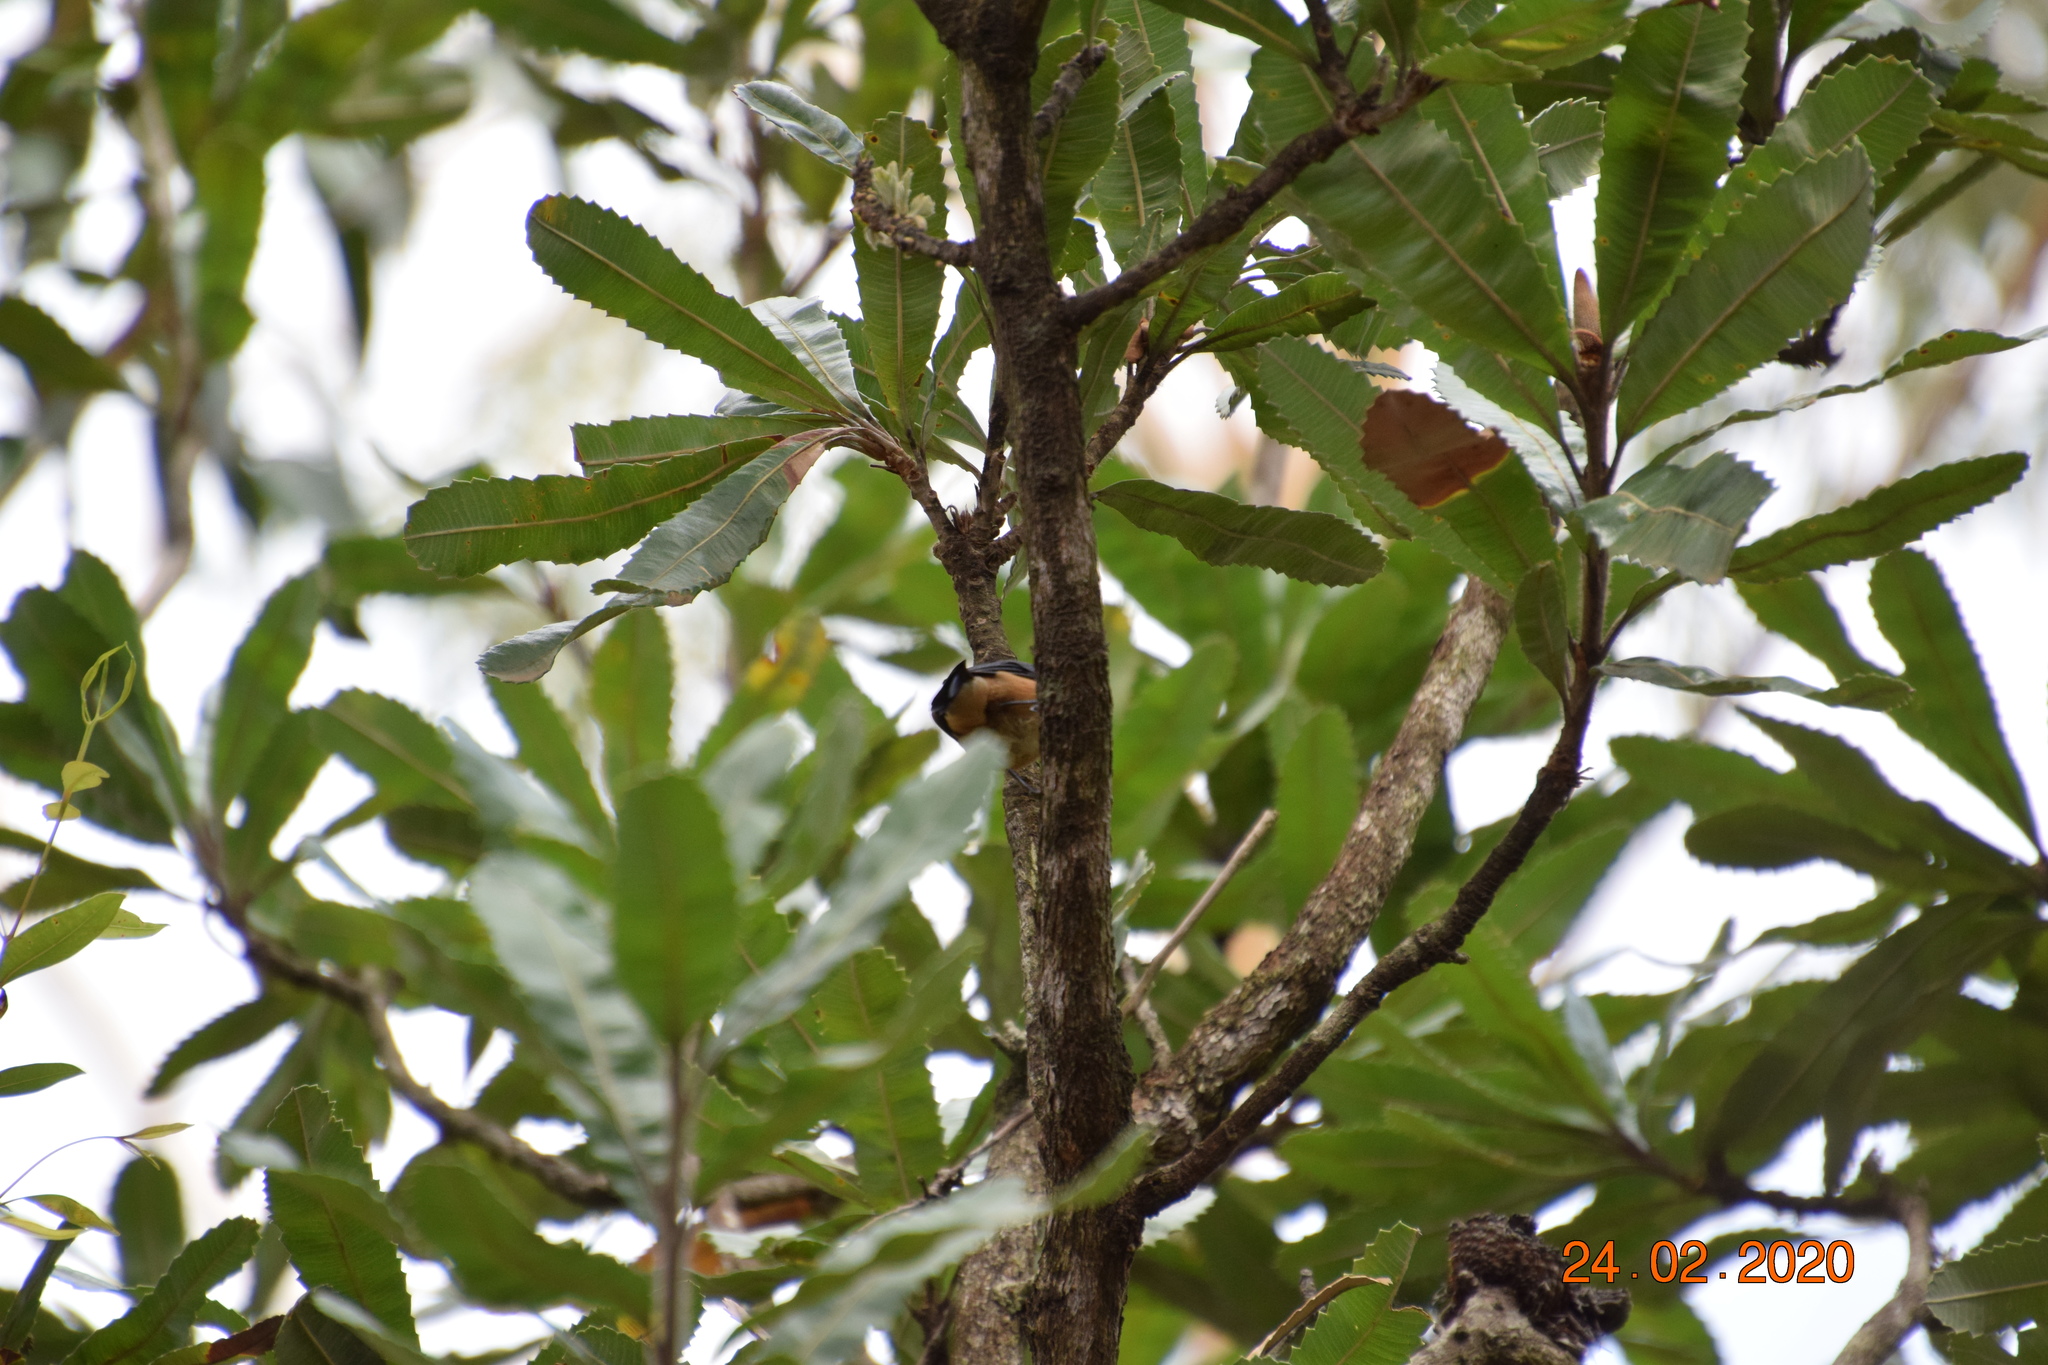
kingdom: Animalia
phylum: Chordata
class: Aves
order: Passeriformes
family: Meliphagidae
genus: Acanthorhynchus
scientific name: Acanthorhynchus tenuirostris
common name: Eastern spinebill
